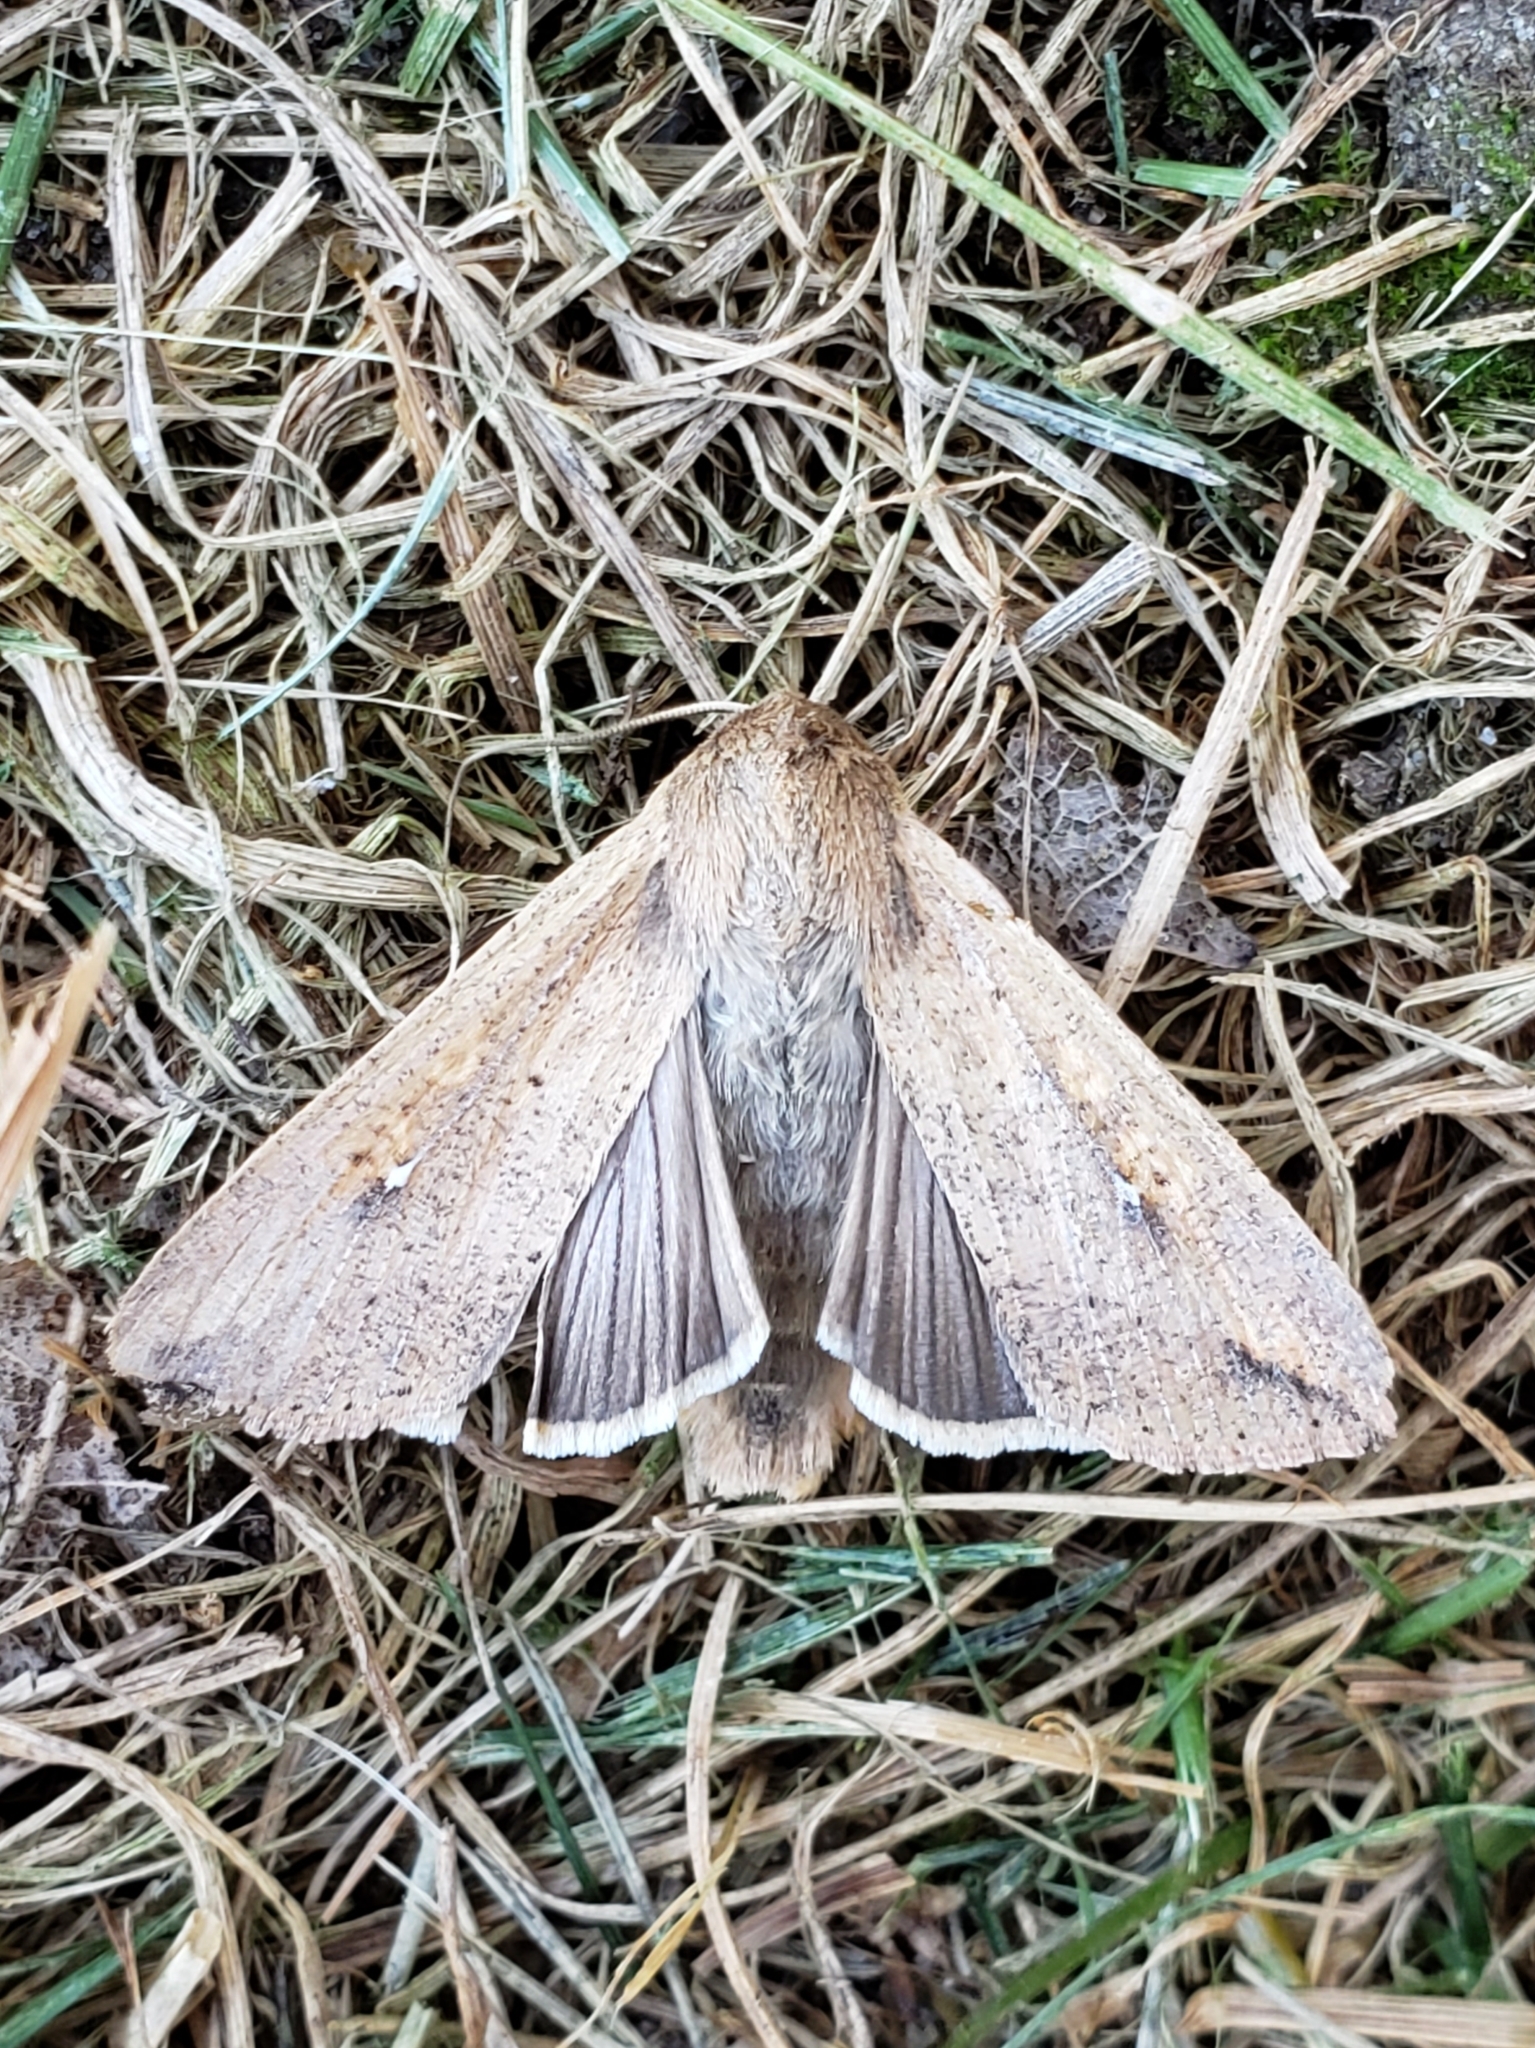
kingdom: Animalia
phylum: Arthropoda
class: Insecta
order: Lepidoptera
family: Noctuidae
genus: Mythimna
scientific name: Mythimna unipuncta
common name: White-speck
